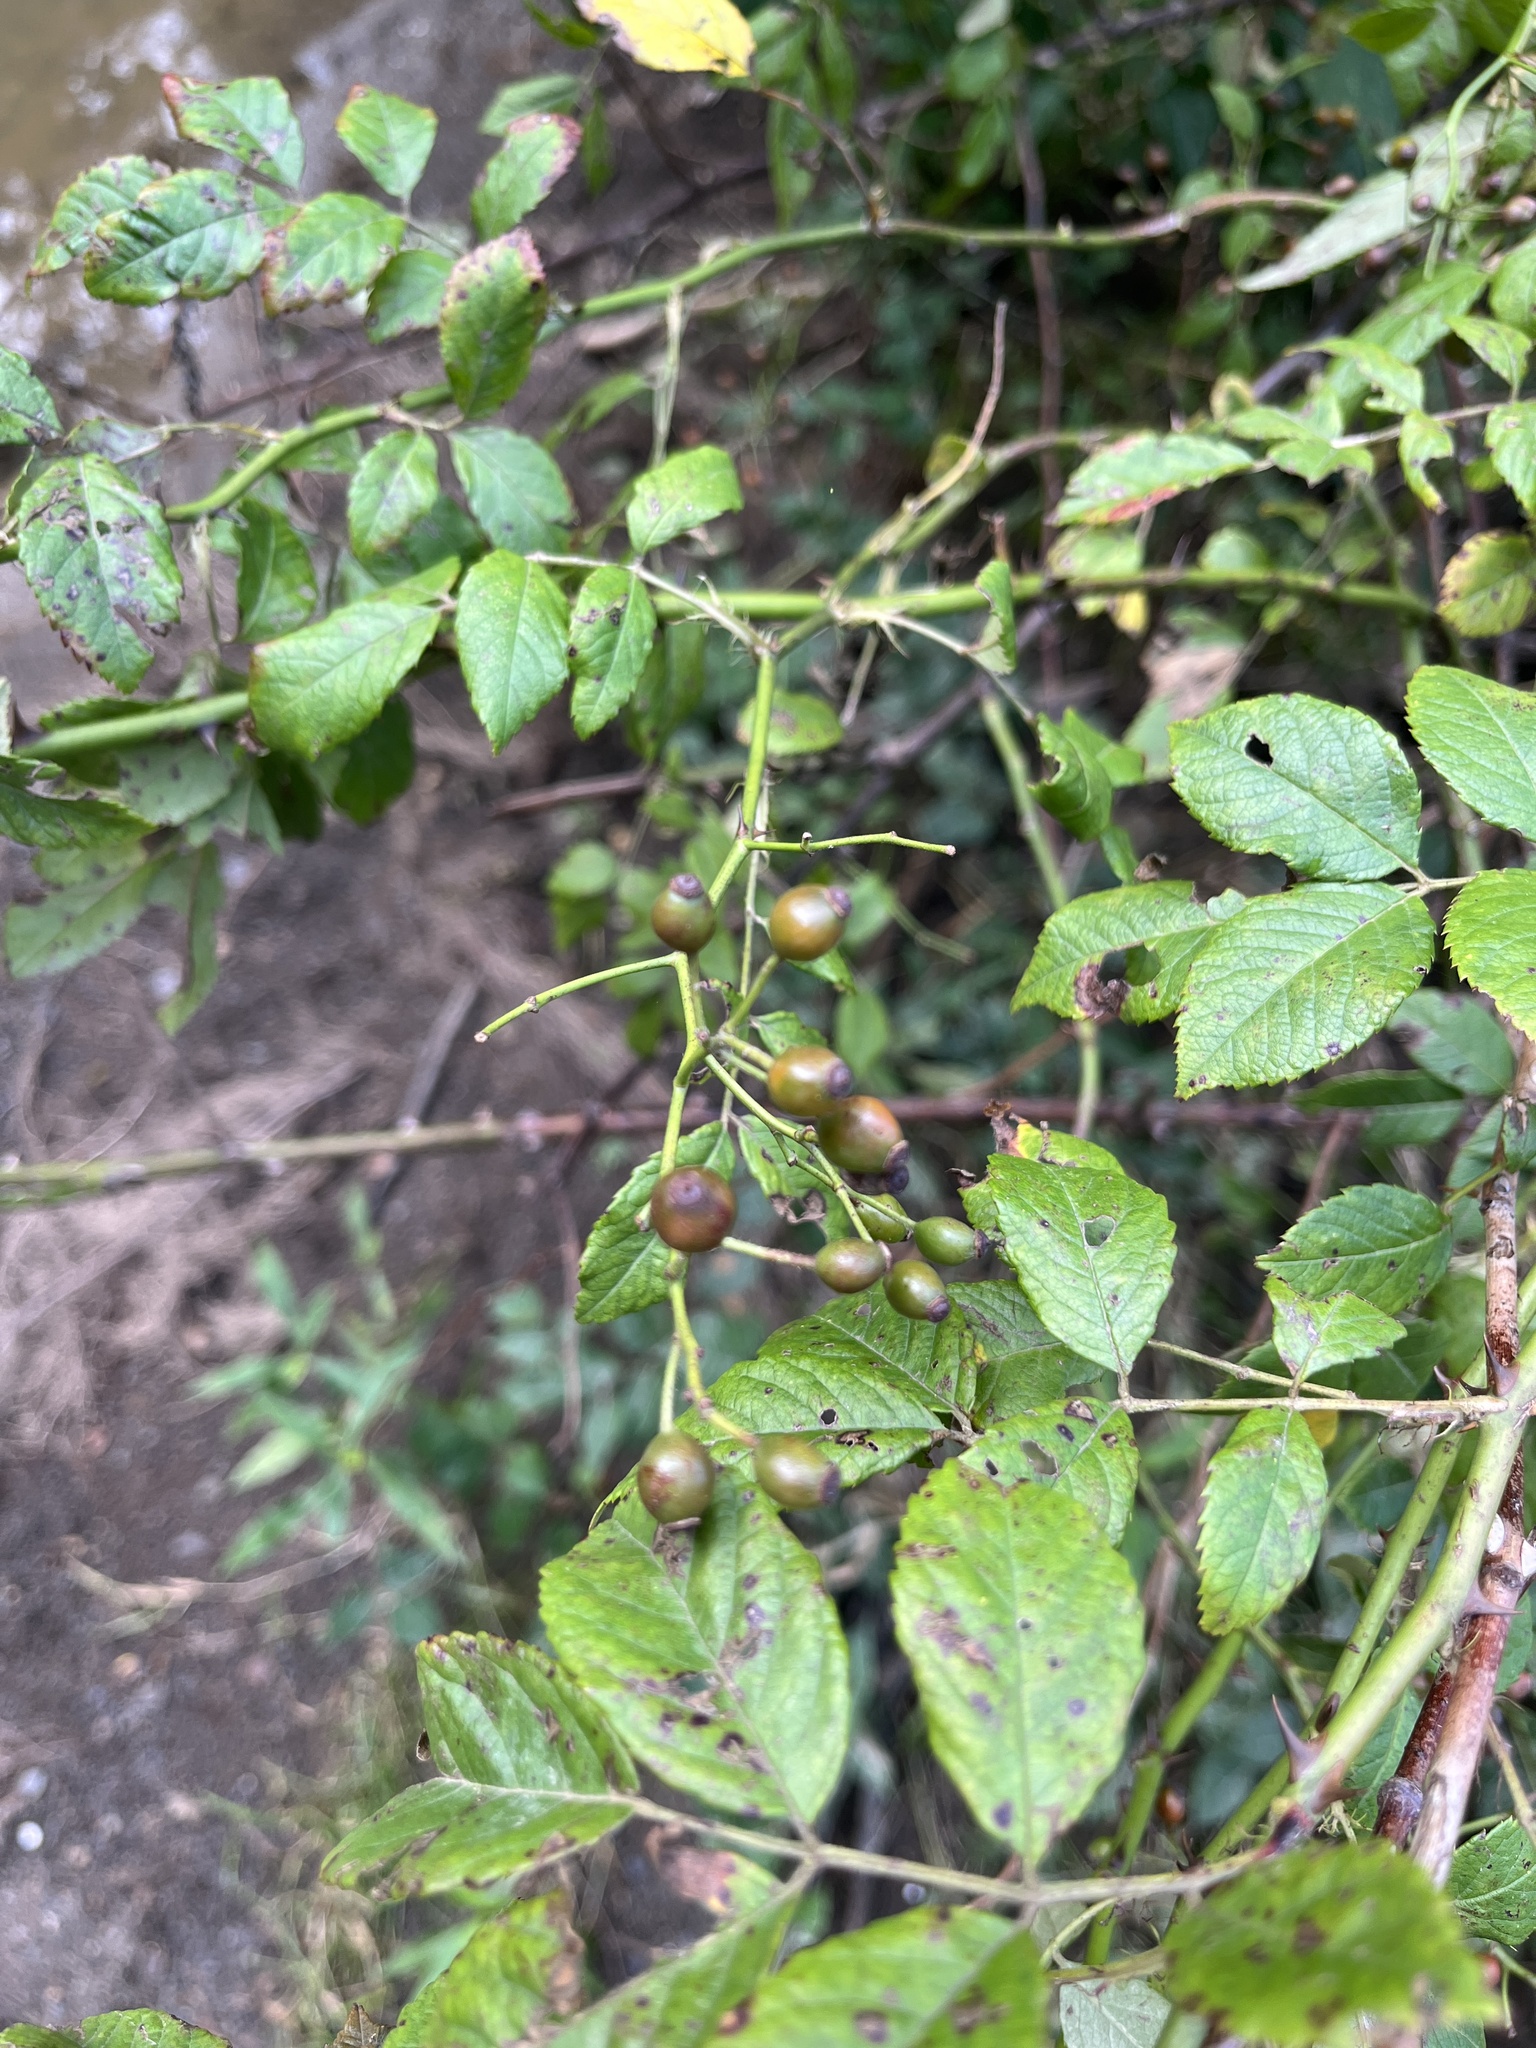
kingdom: Plantae
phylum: Tracheophyta
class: Magnoliopsida
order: Rosales
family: Rosaceae
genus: Rosa
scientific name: Rosa multiflora
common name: Multiflora rose
